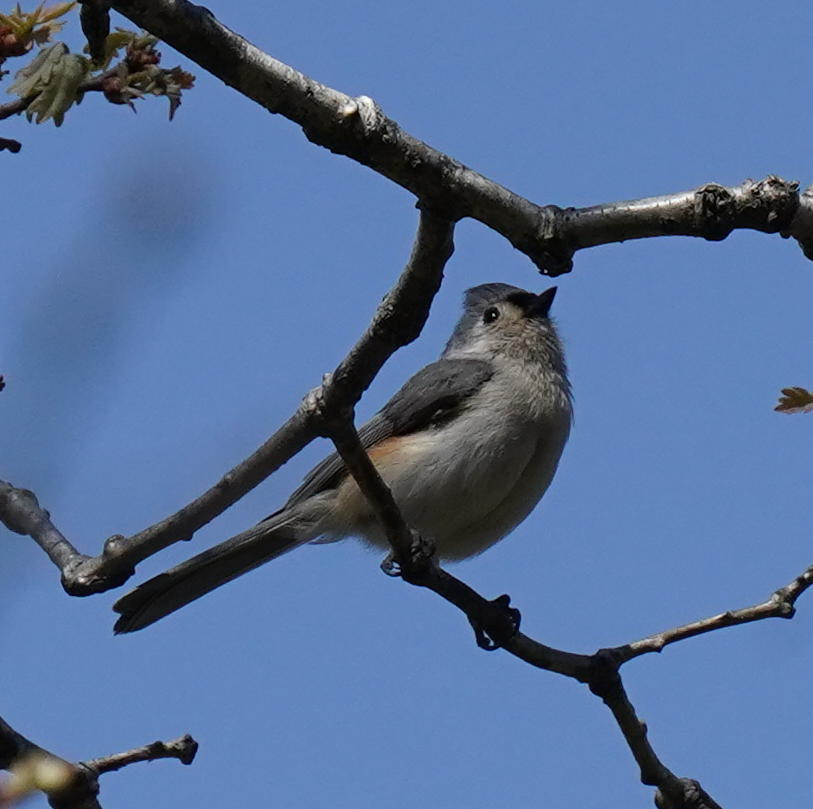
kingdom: Animalia
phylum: Chordata
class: Aves
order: Passeriformes
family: Paridae
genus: Baeolophus
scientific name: Baeolophus bicolor
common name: Tufted titmouse
